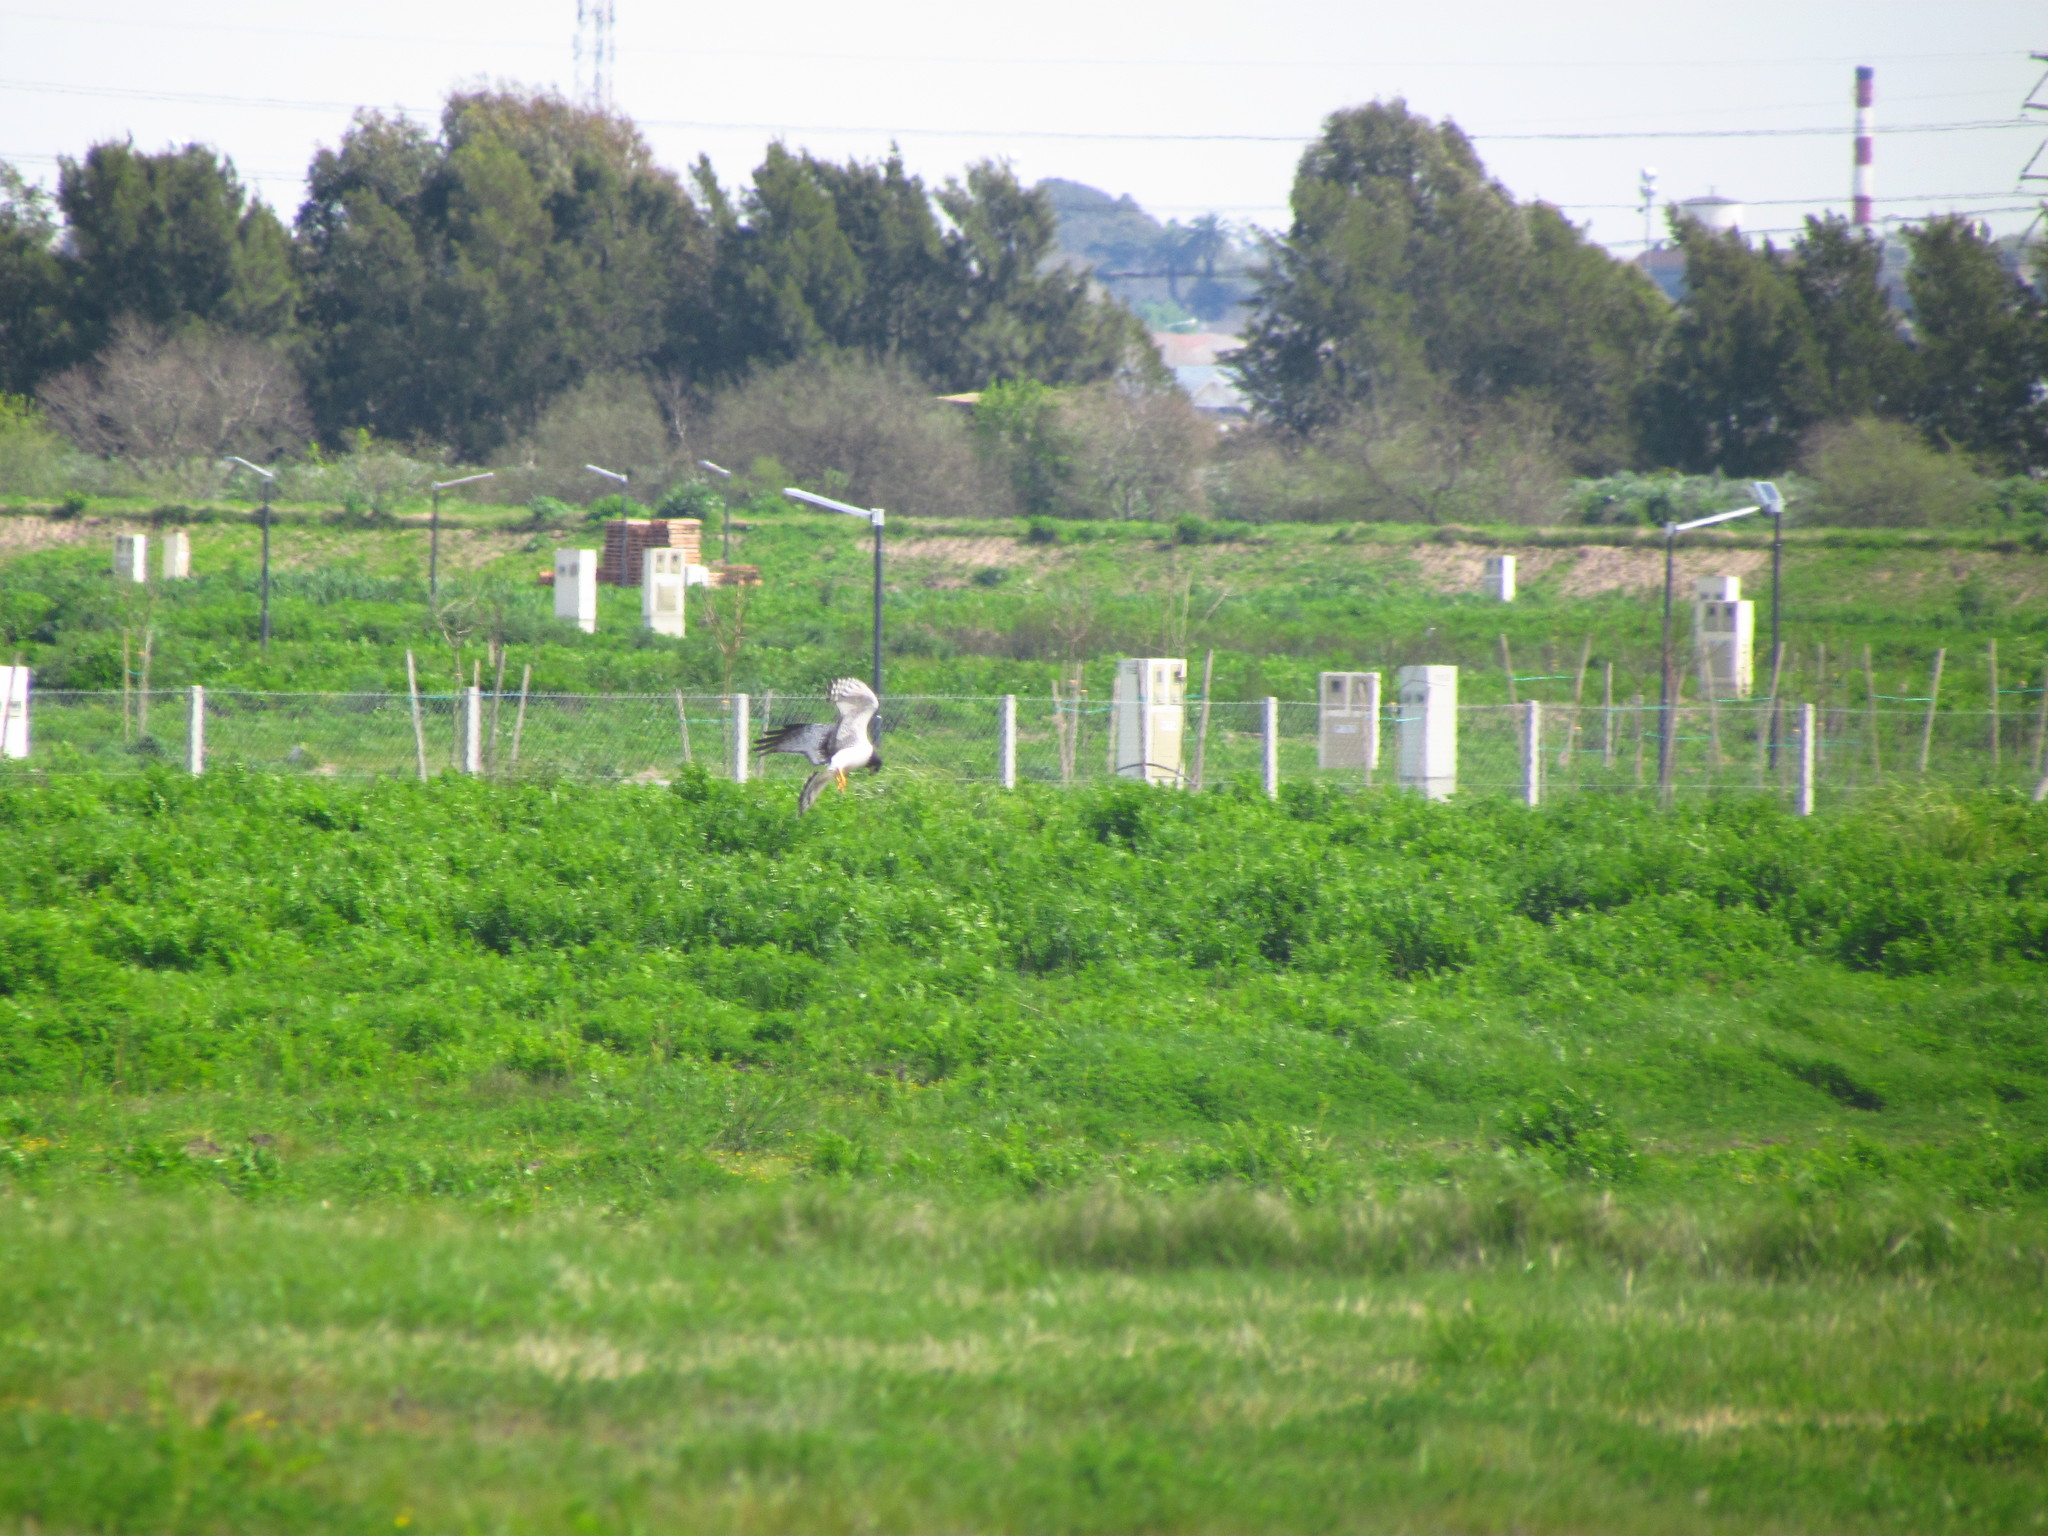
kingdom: Animalia
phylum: Chordata
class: Aves
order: Accipitriformes
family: Accipitridae
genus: Circus
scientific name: Circus buffoni
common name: Long-winged harrier
